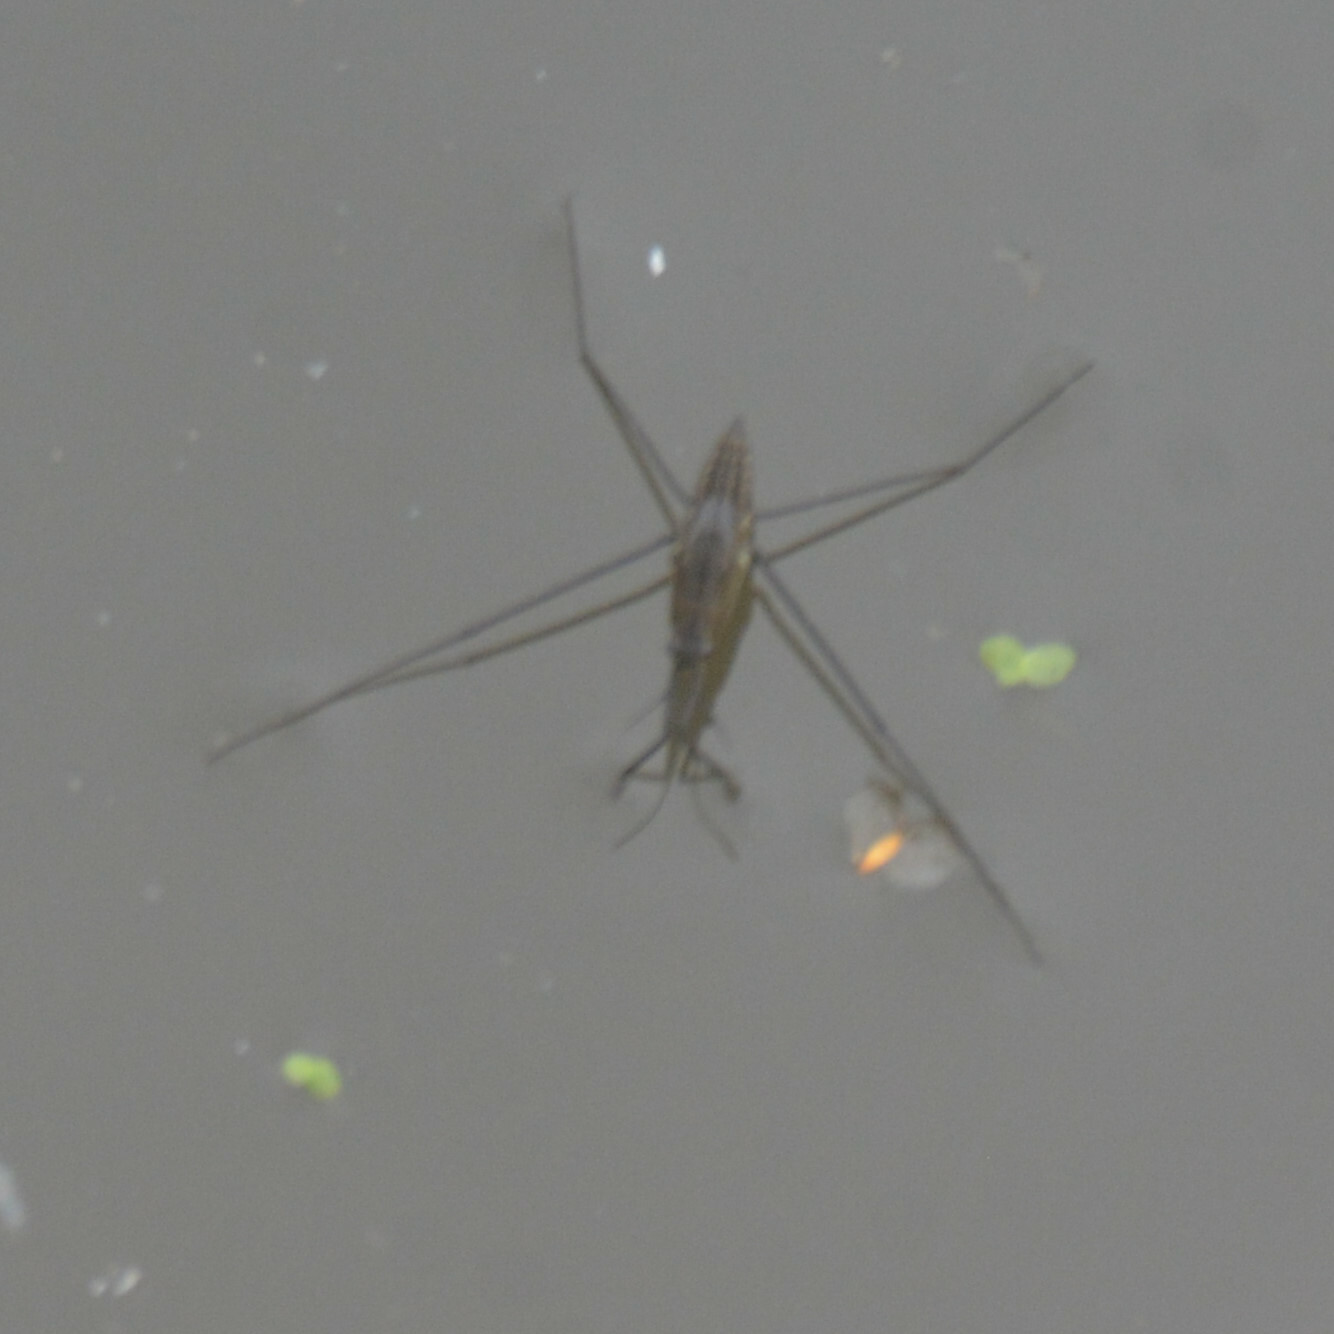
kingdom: Animalia
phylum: Arthropoda
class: Insecta
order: Hemiptera
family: Gerridae
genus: Aquarius
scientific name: Aquarius paludum
